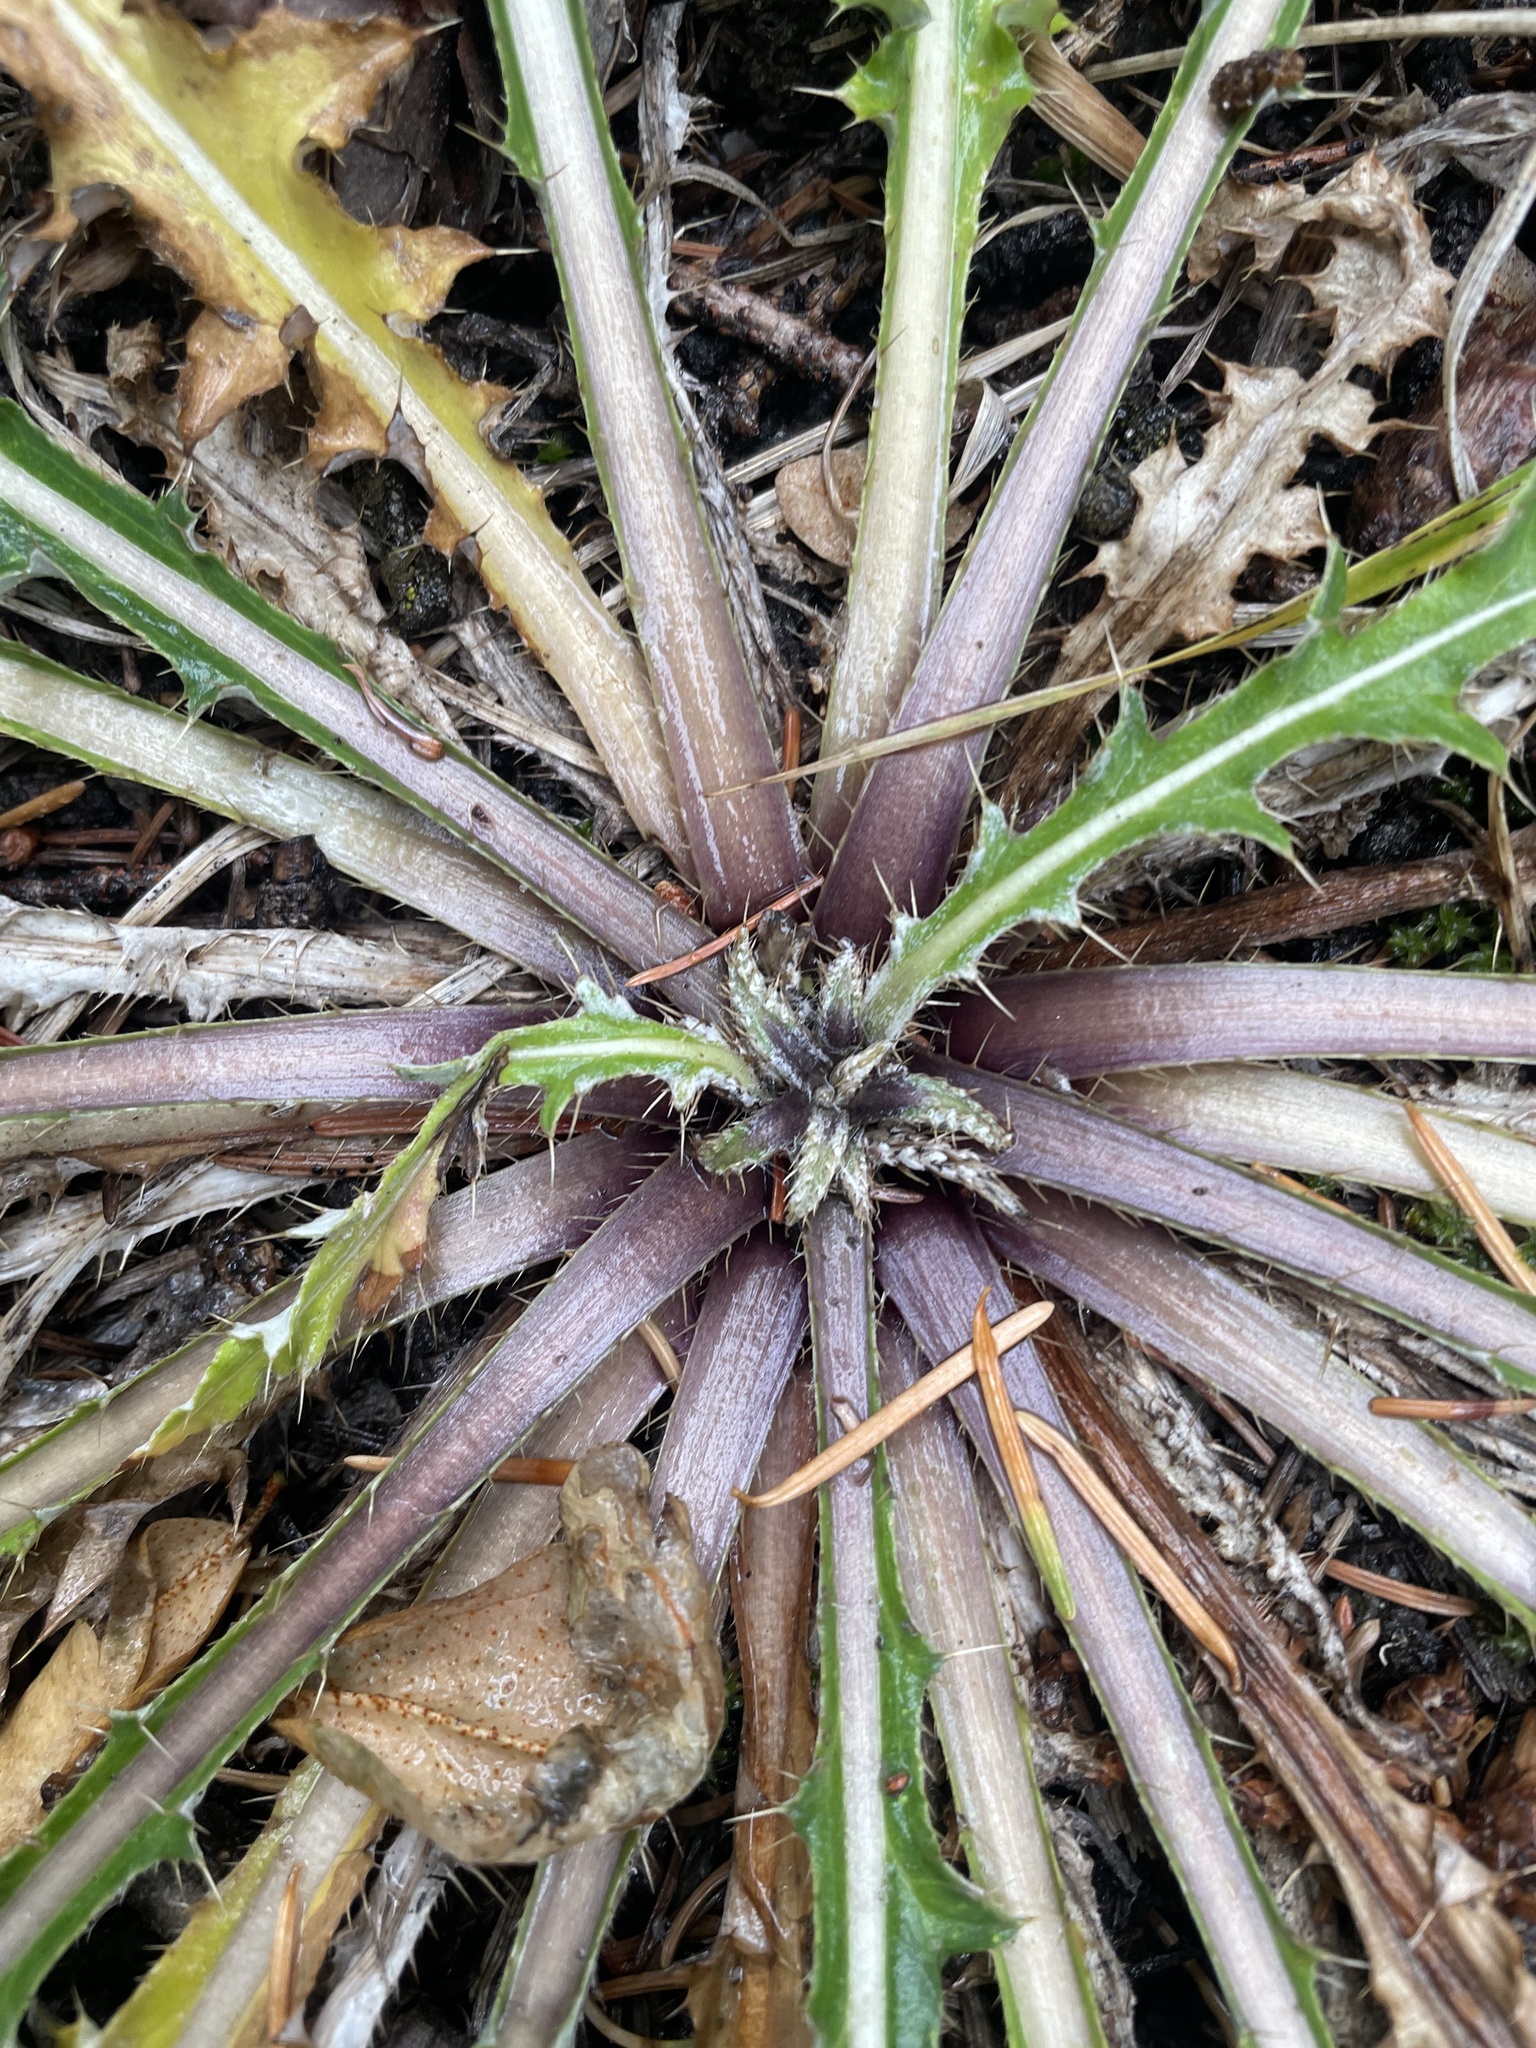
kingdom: Plantae
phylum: Tracheophyta
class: Magnoliopsida
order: Asterales
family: Asteraceae
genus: Cirsium
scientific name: Cirsium hookerianum
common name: Hooker's thistle
